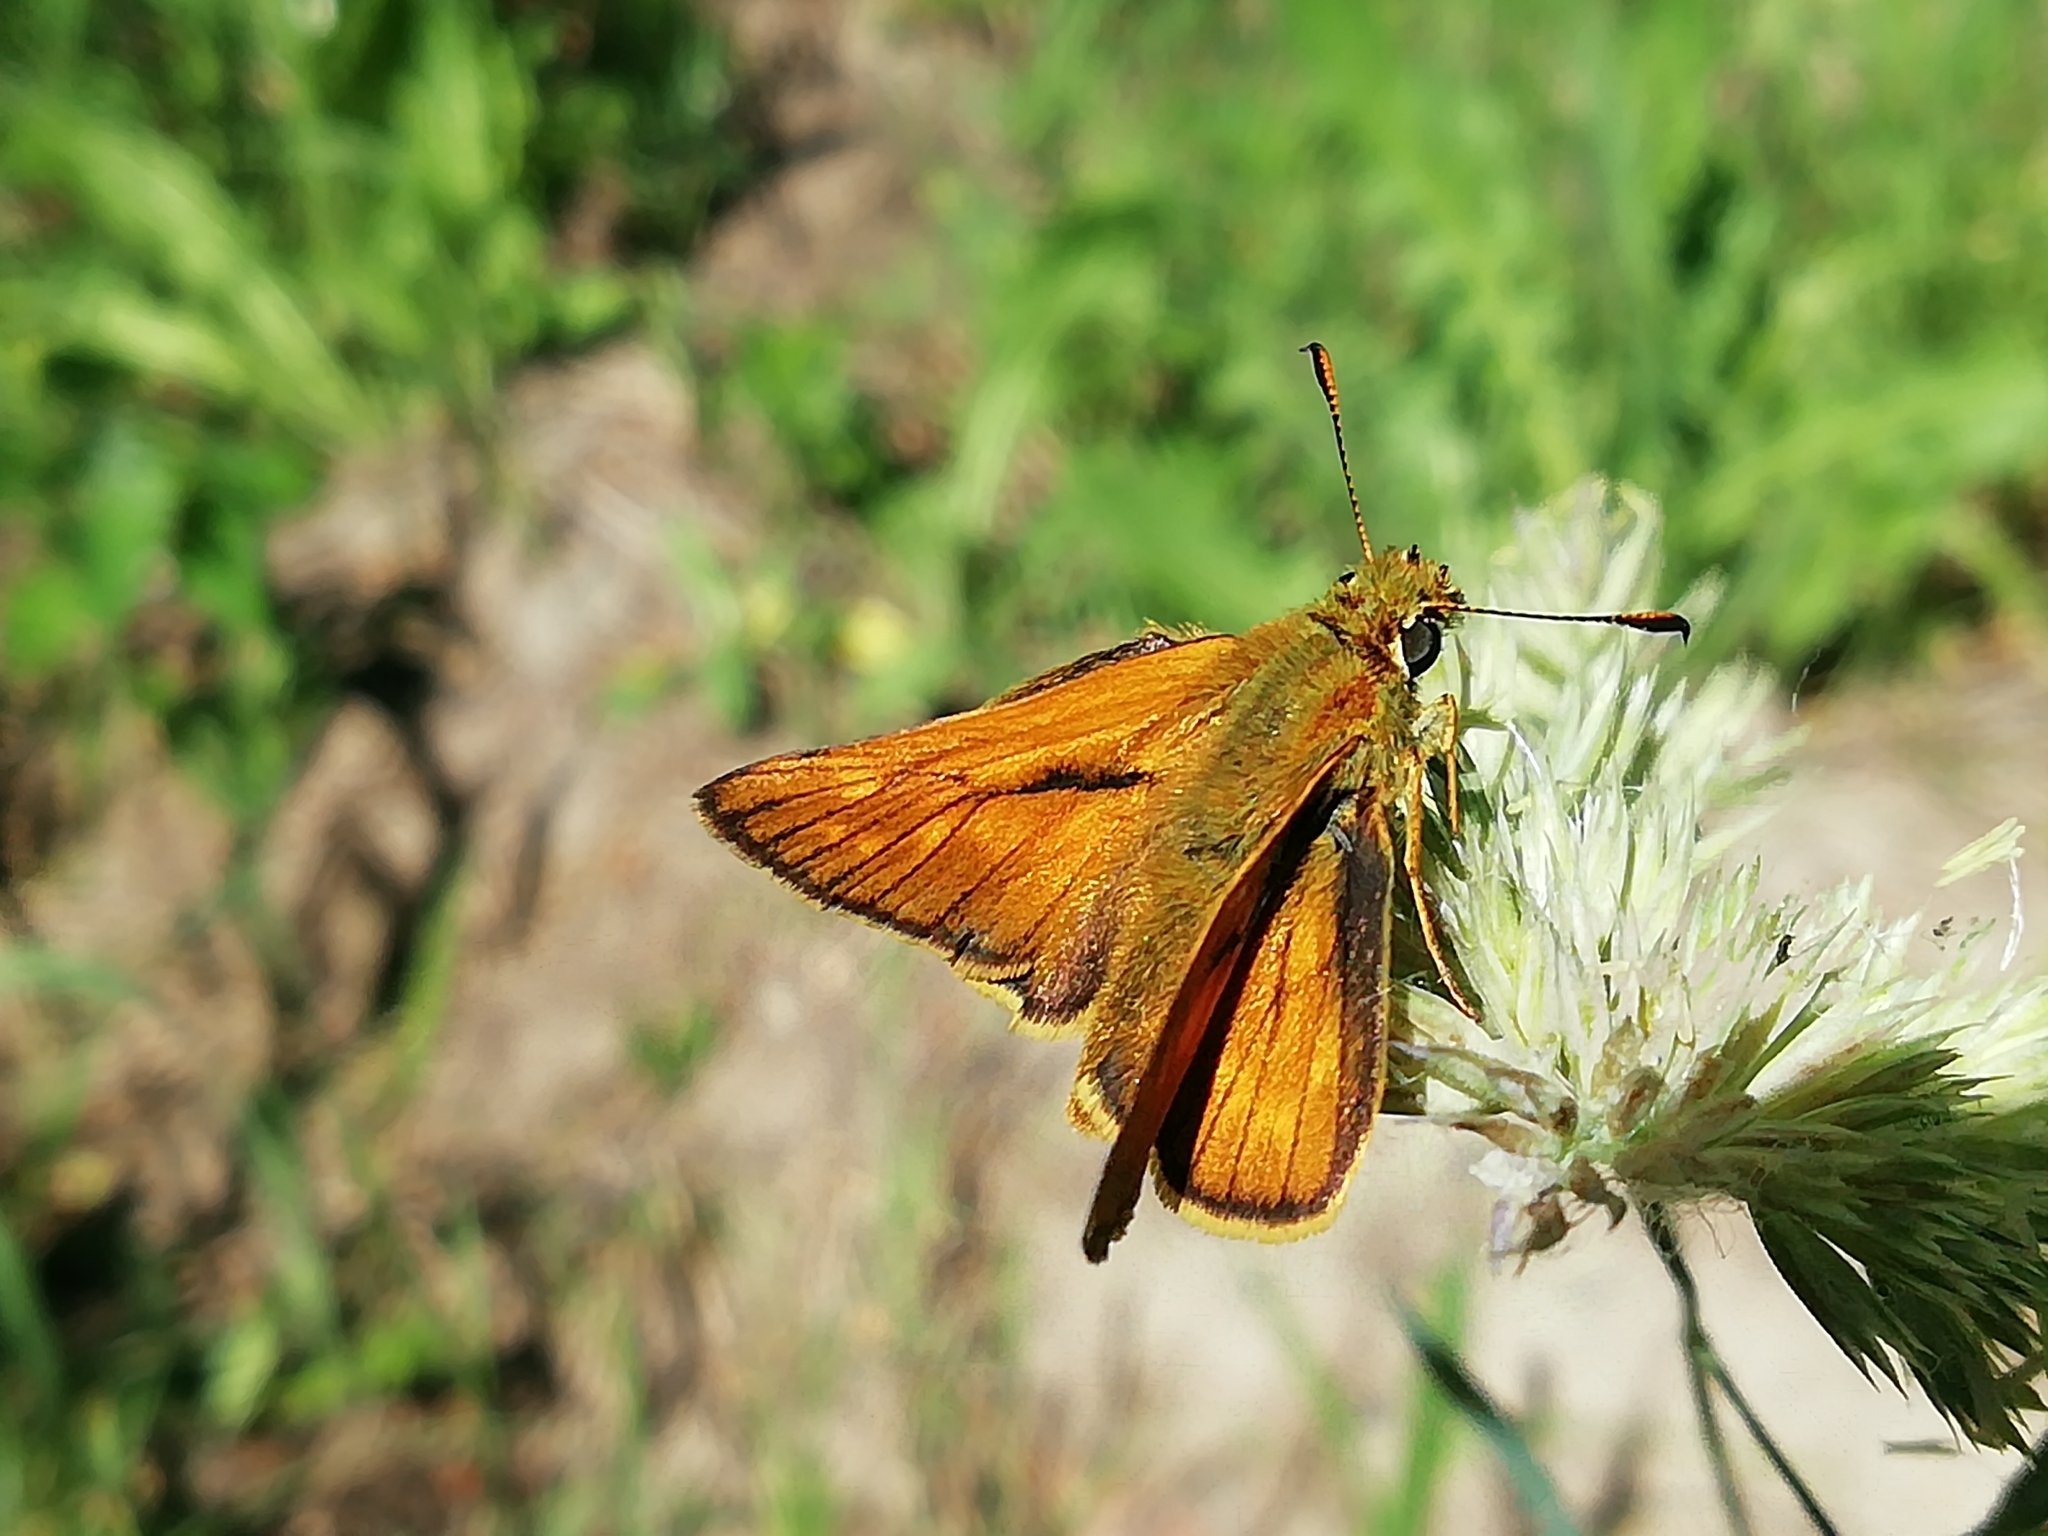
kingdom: Animalia
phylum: Arthropoda
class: Insecta
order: Lepidoptera
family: Hesperiidae
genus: Ochlodes
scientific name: Ochlodes venata
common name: Large skipper
